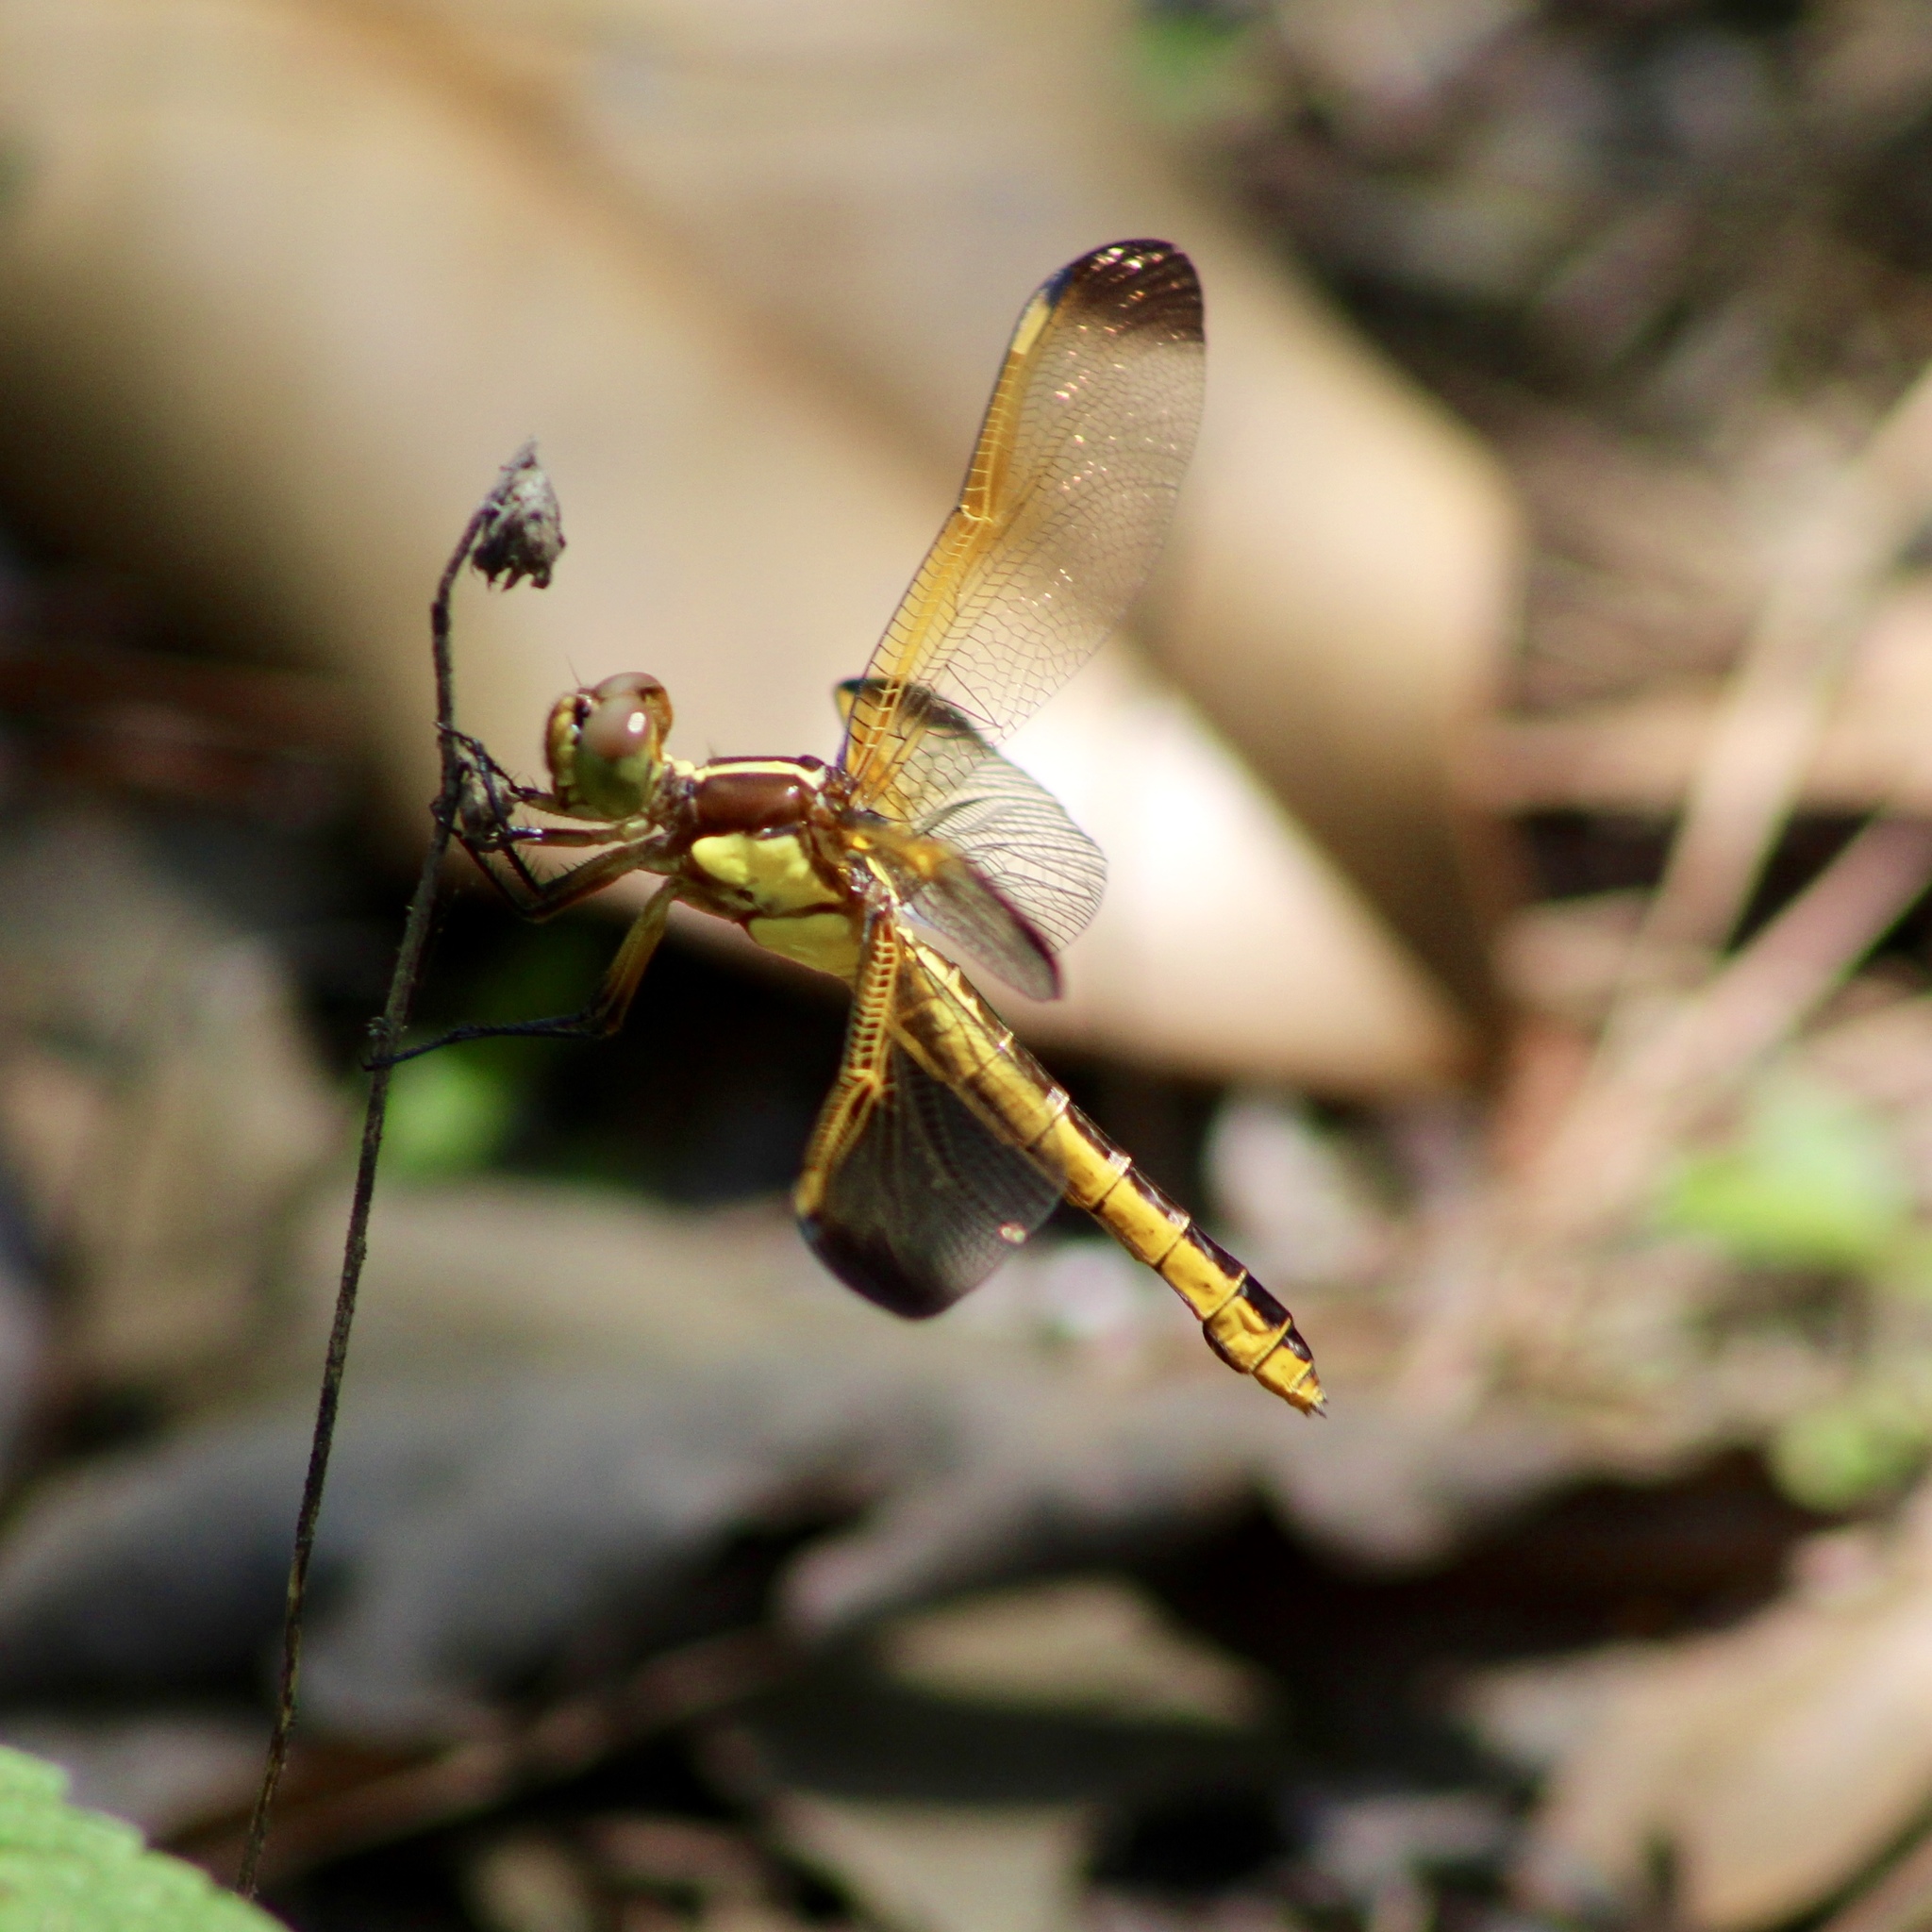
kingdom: Animalia
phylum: Arthropoda
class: Insecta
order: Odonata
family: Libellulidae
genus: Libellula
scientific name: Libellula flavida
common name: Yellow-sided skimmer
